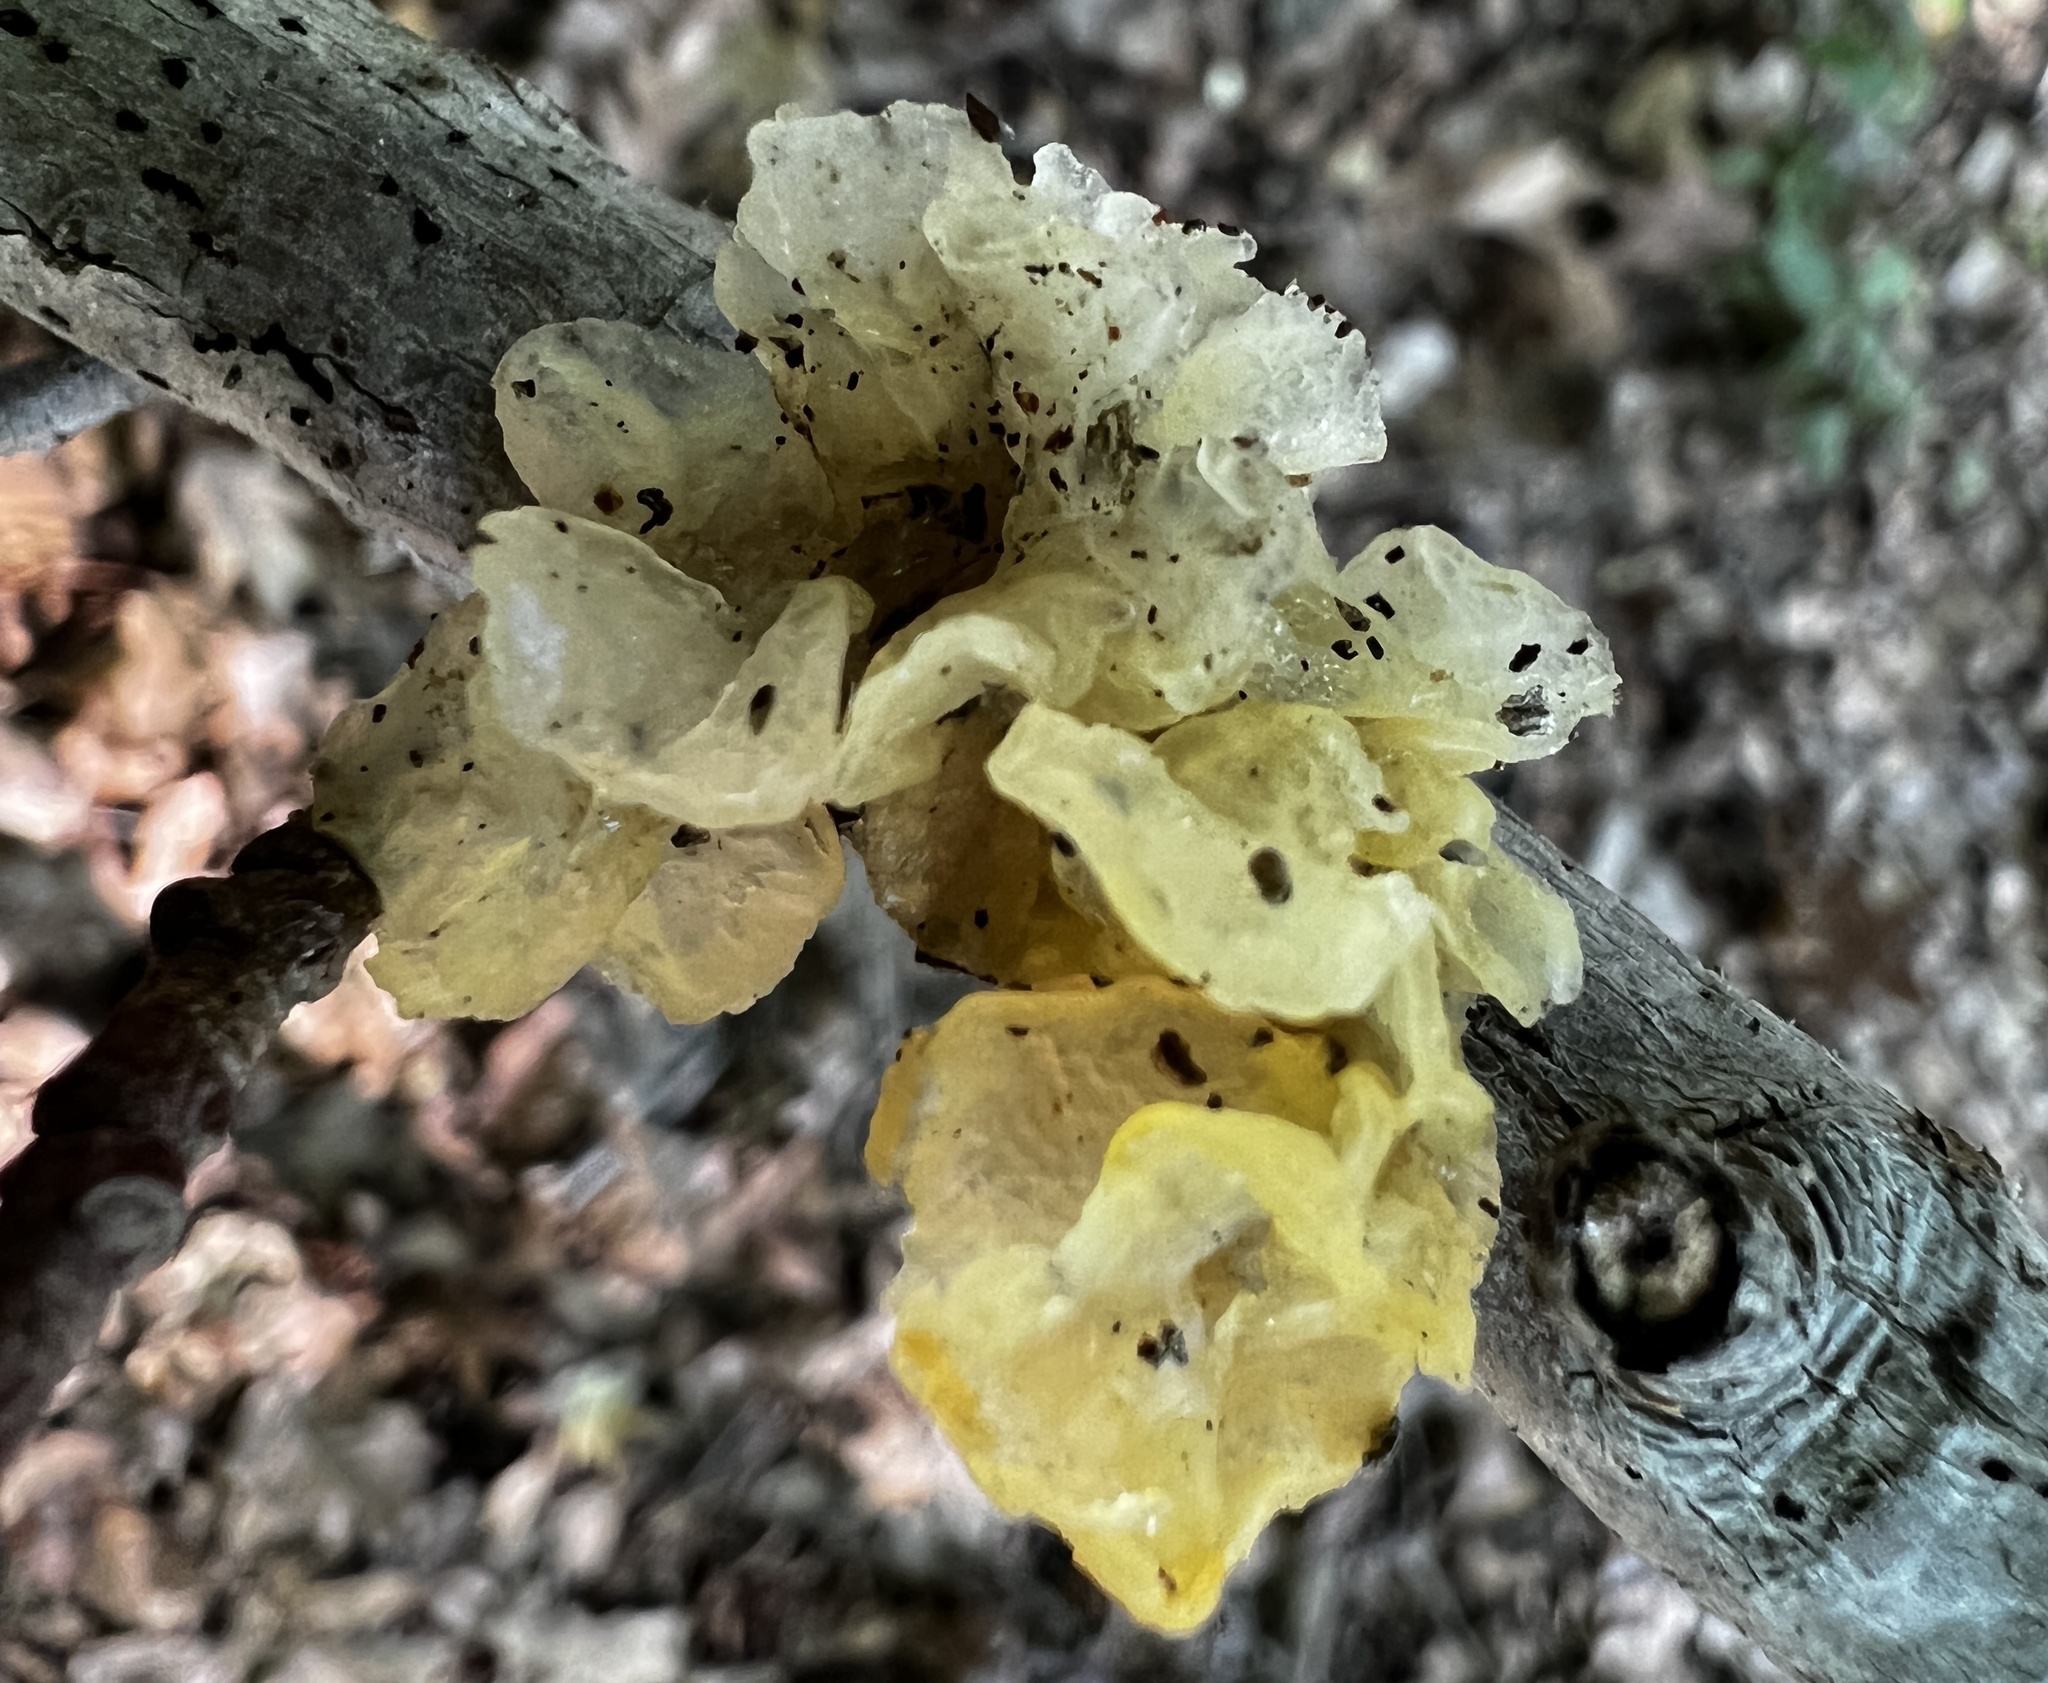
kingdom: Fungi
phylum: Basidiomycota
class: Tremellomycetes
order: Tremellales
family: Tremellaceae
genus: Tremella
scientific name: Tremella fuciformis
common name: Snow fungus
